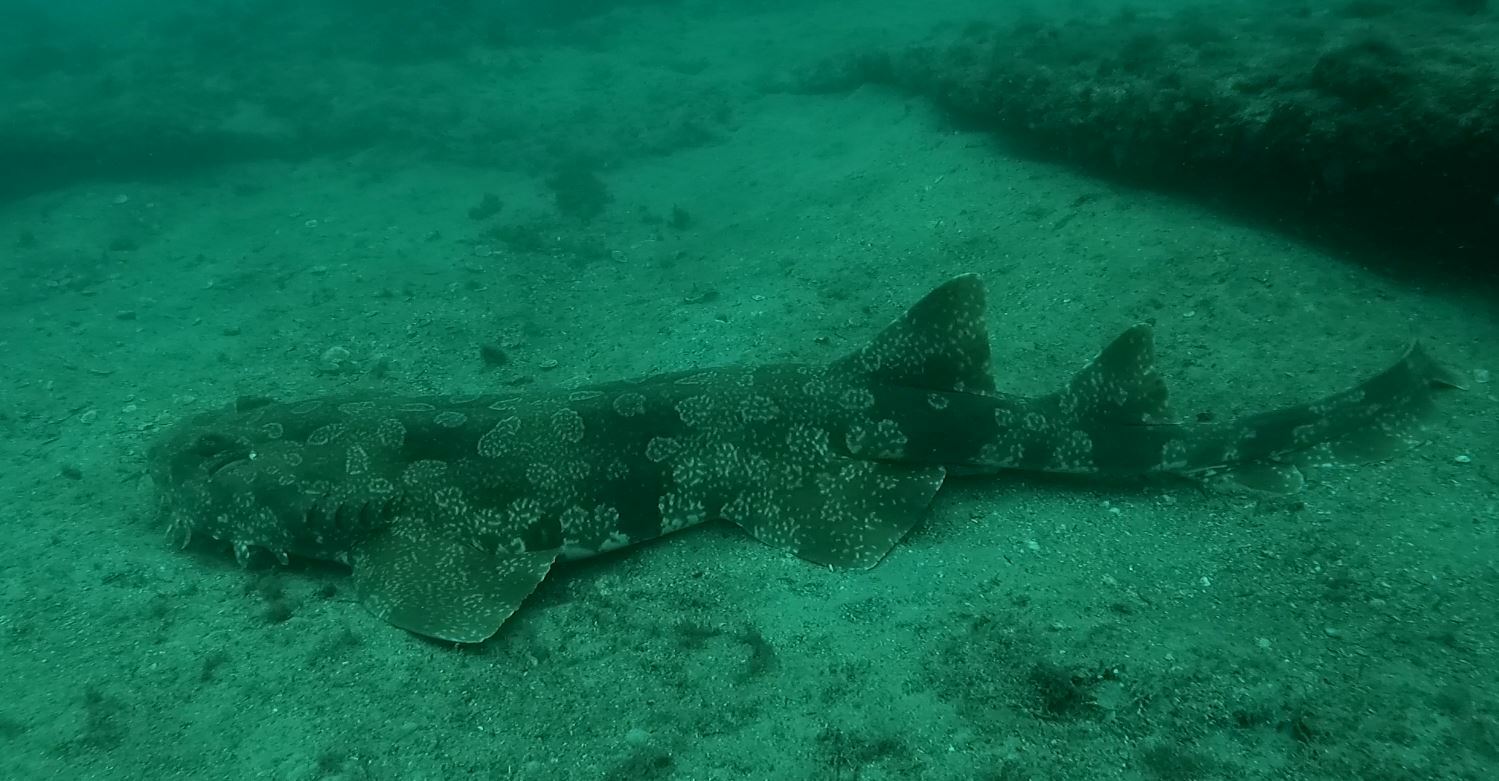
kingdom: Animalia
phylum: Chordata
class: Elasmobranchii
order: Orectolobiformes
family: Orectolobidae
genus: Orectolobus
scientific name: Orectolobus maculatus
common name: Spotted wobbegong
